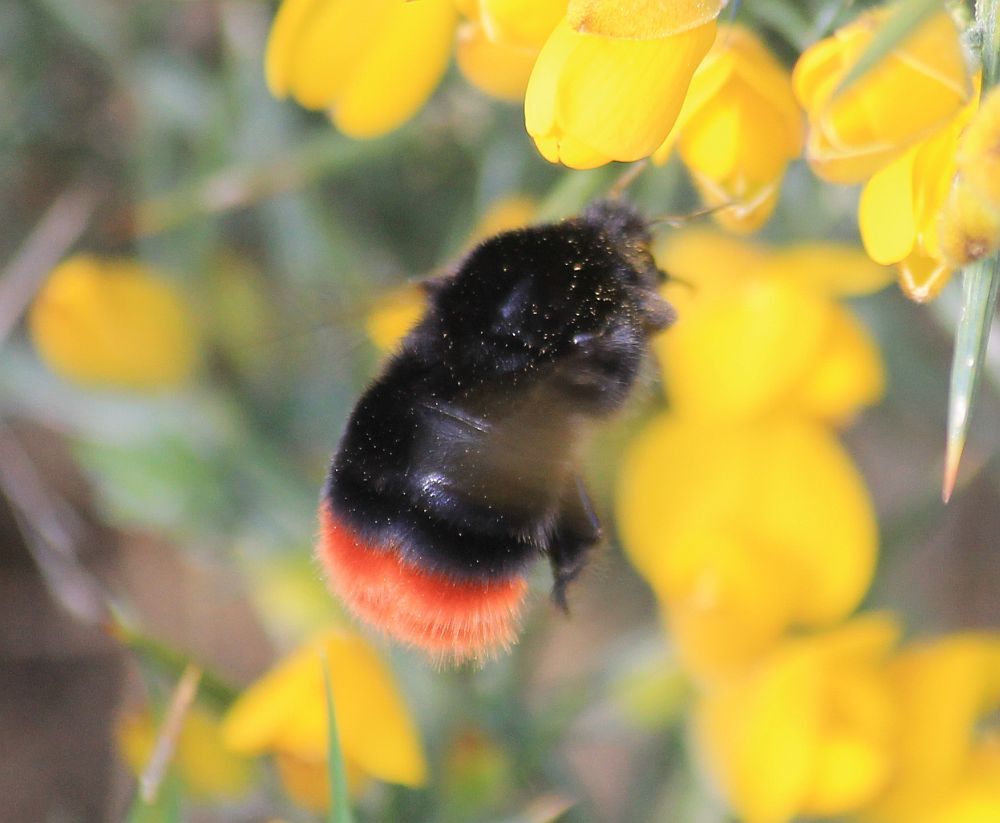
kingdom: Animalia
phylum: Arthropoda
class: Insecta
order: Hymenoptera
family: Apidae
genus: Bombus
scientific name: Bombus lapidarius
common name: Large red-tailed humble-bee
